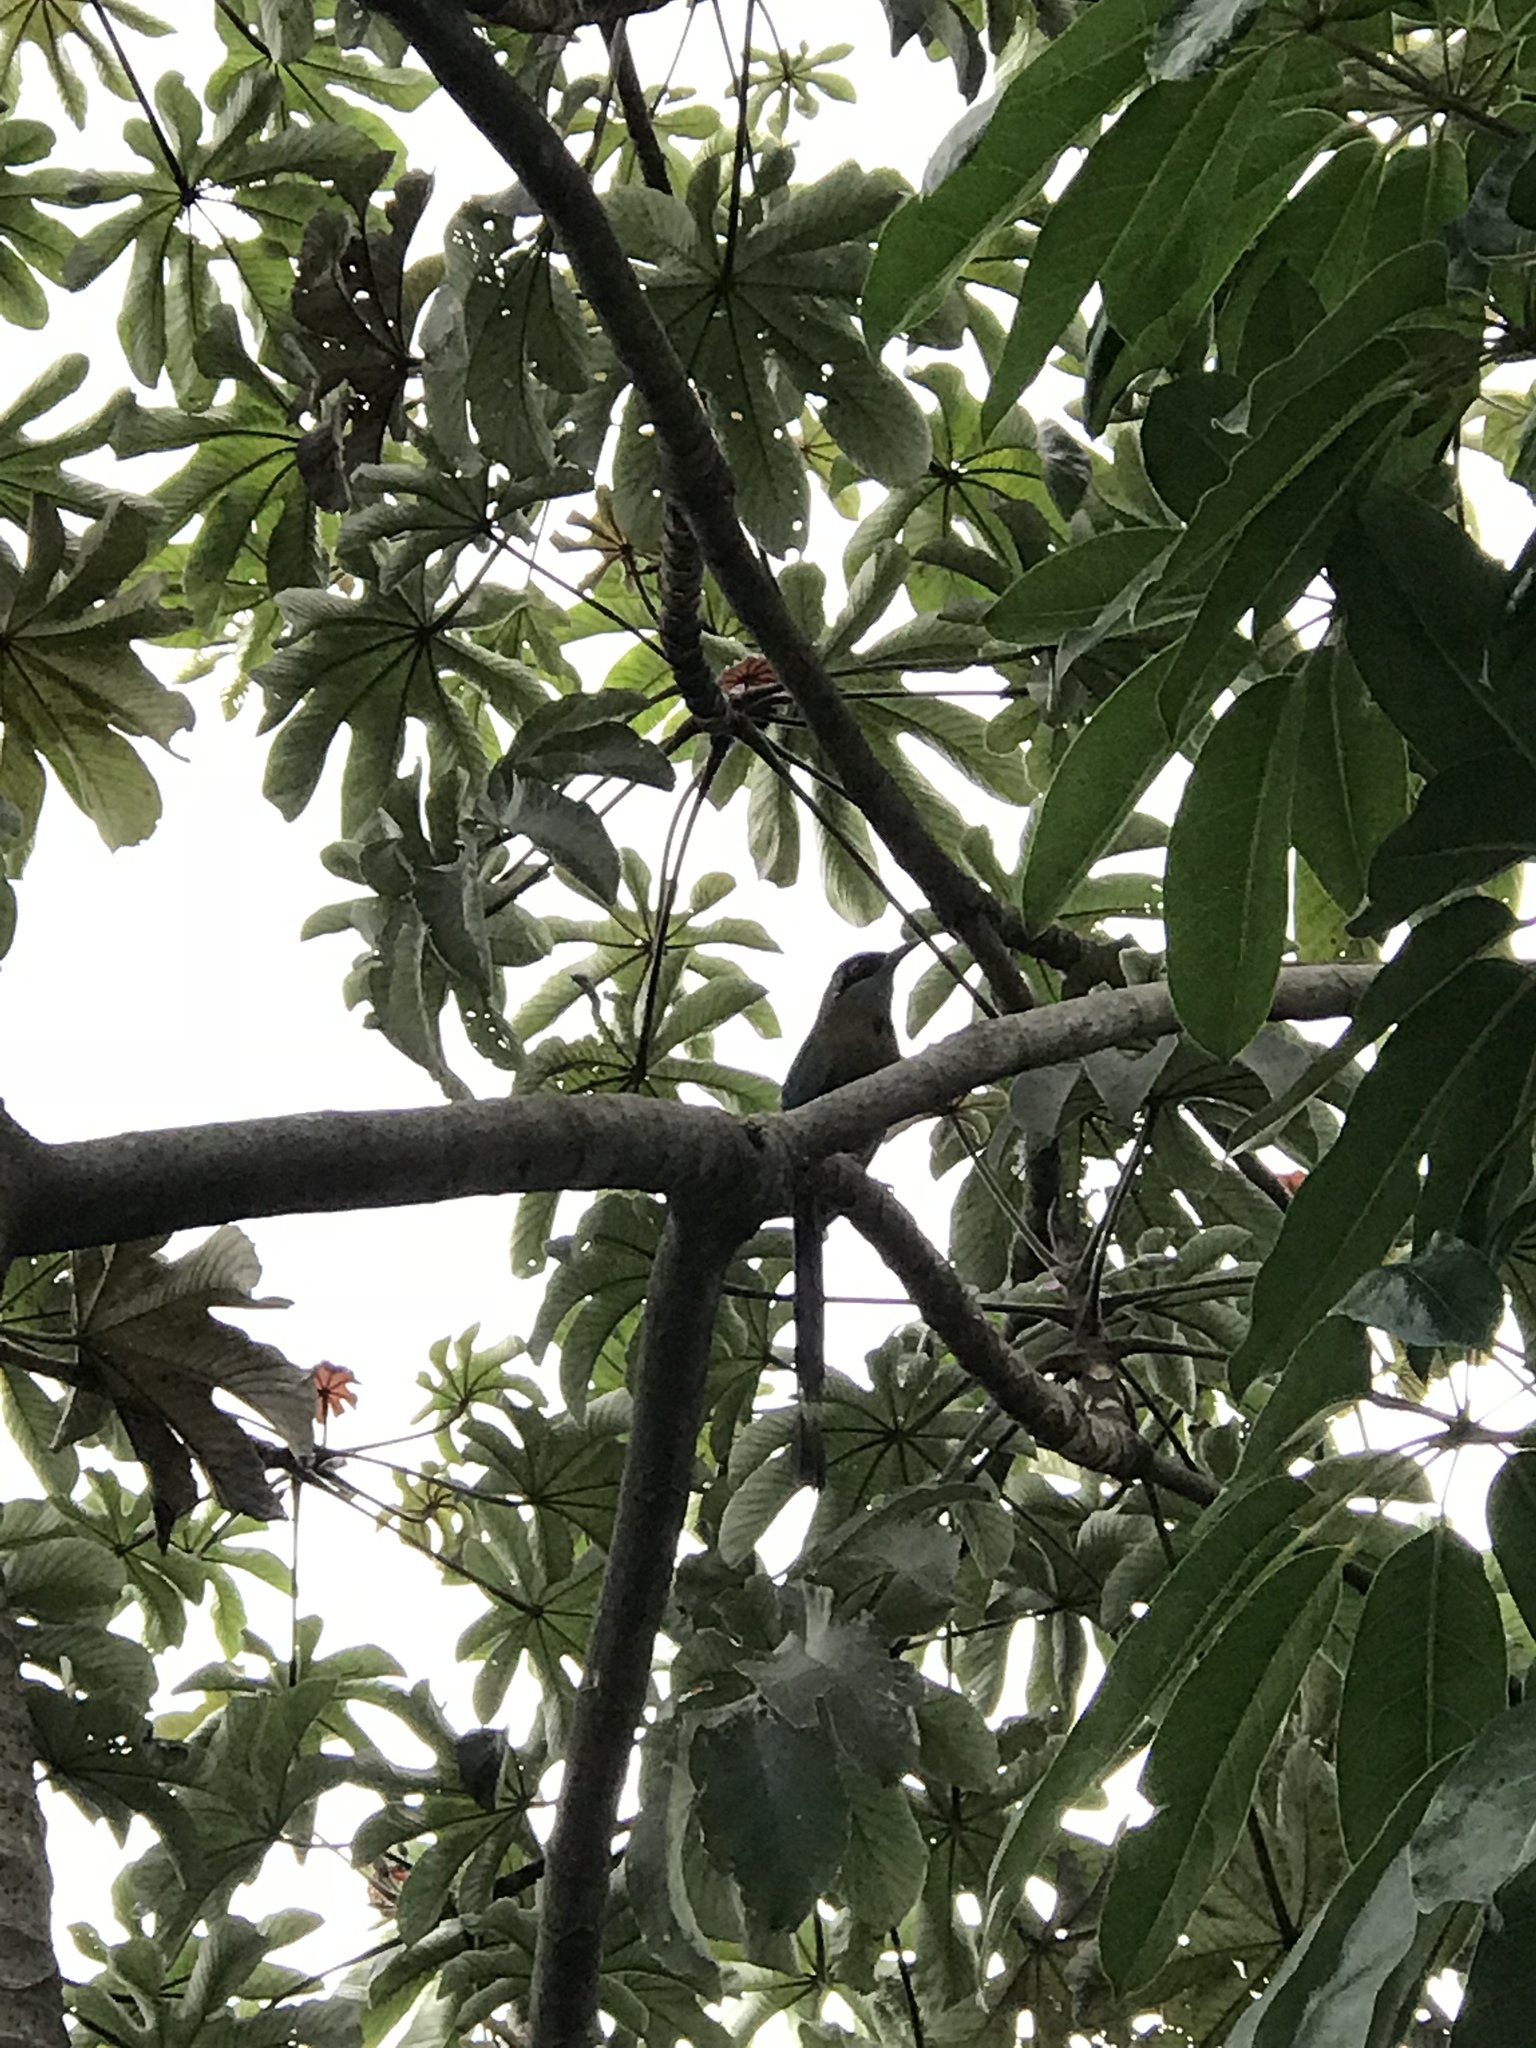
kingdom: Animalia
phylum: Chordata
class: Aves
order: Coraciiformes
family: Momotidae
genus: Momotus
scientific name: Momotus lessonii
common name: Lesson's motmot
